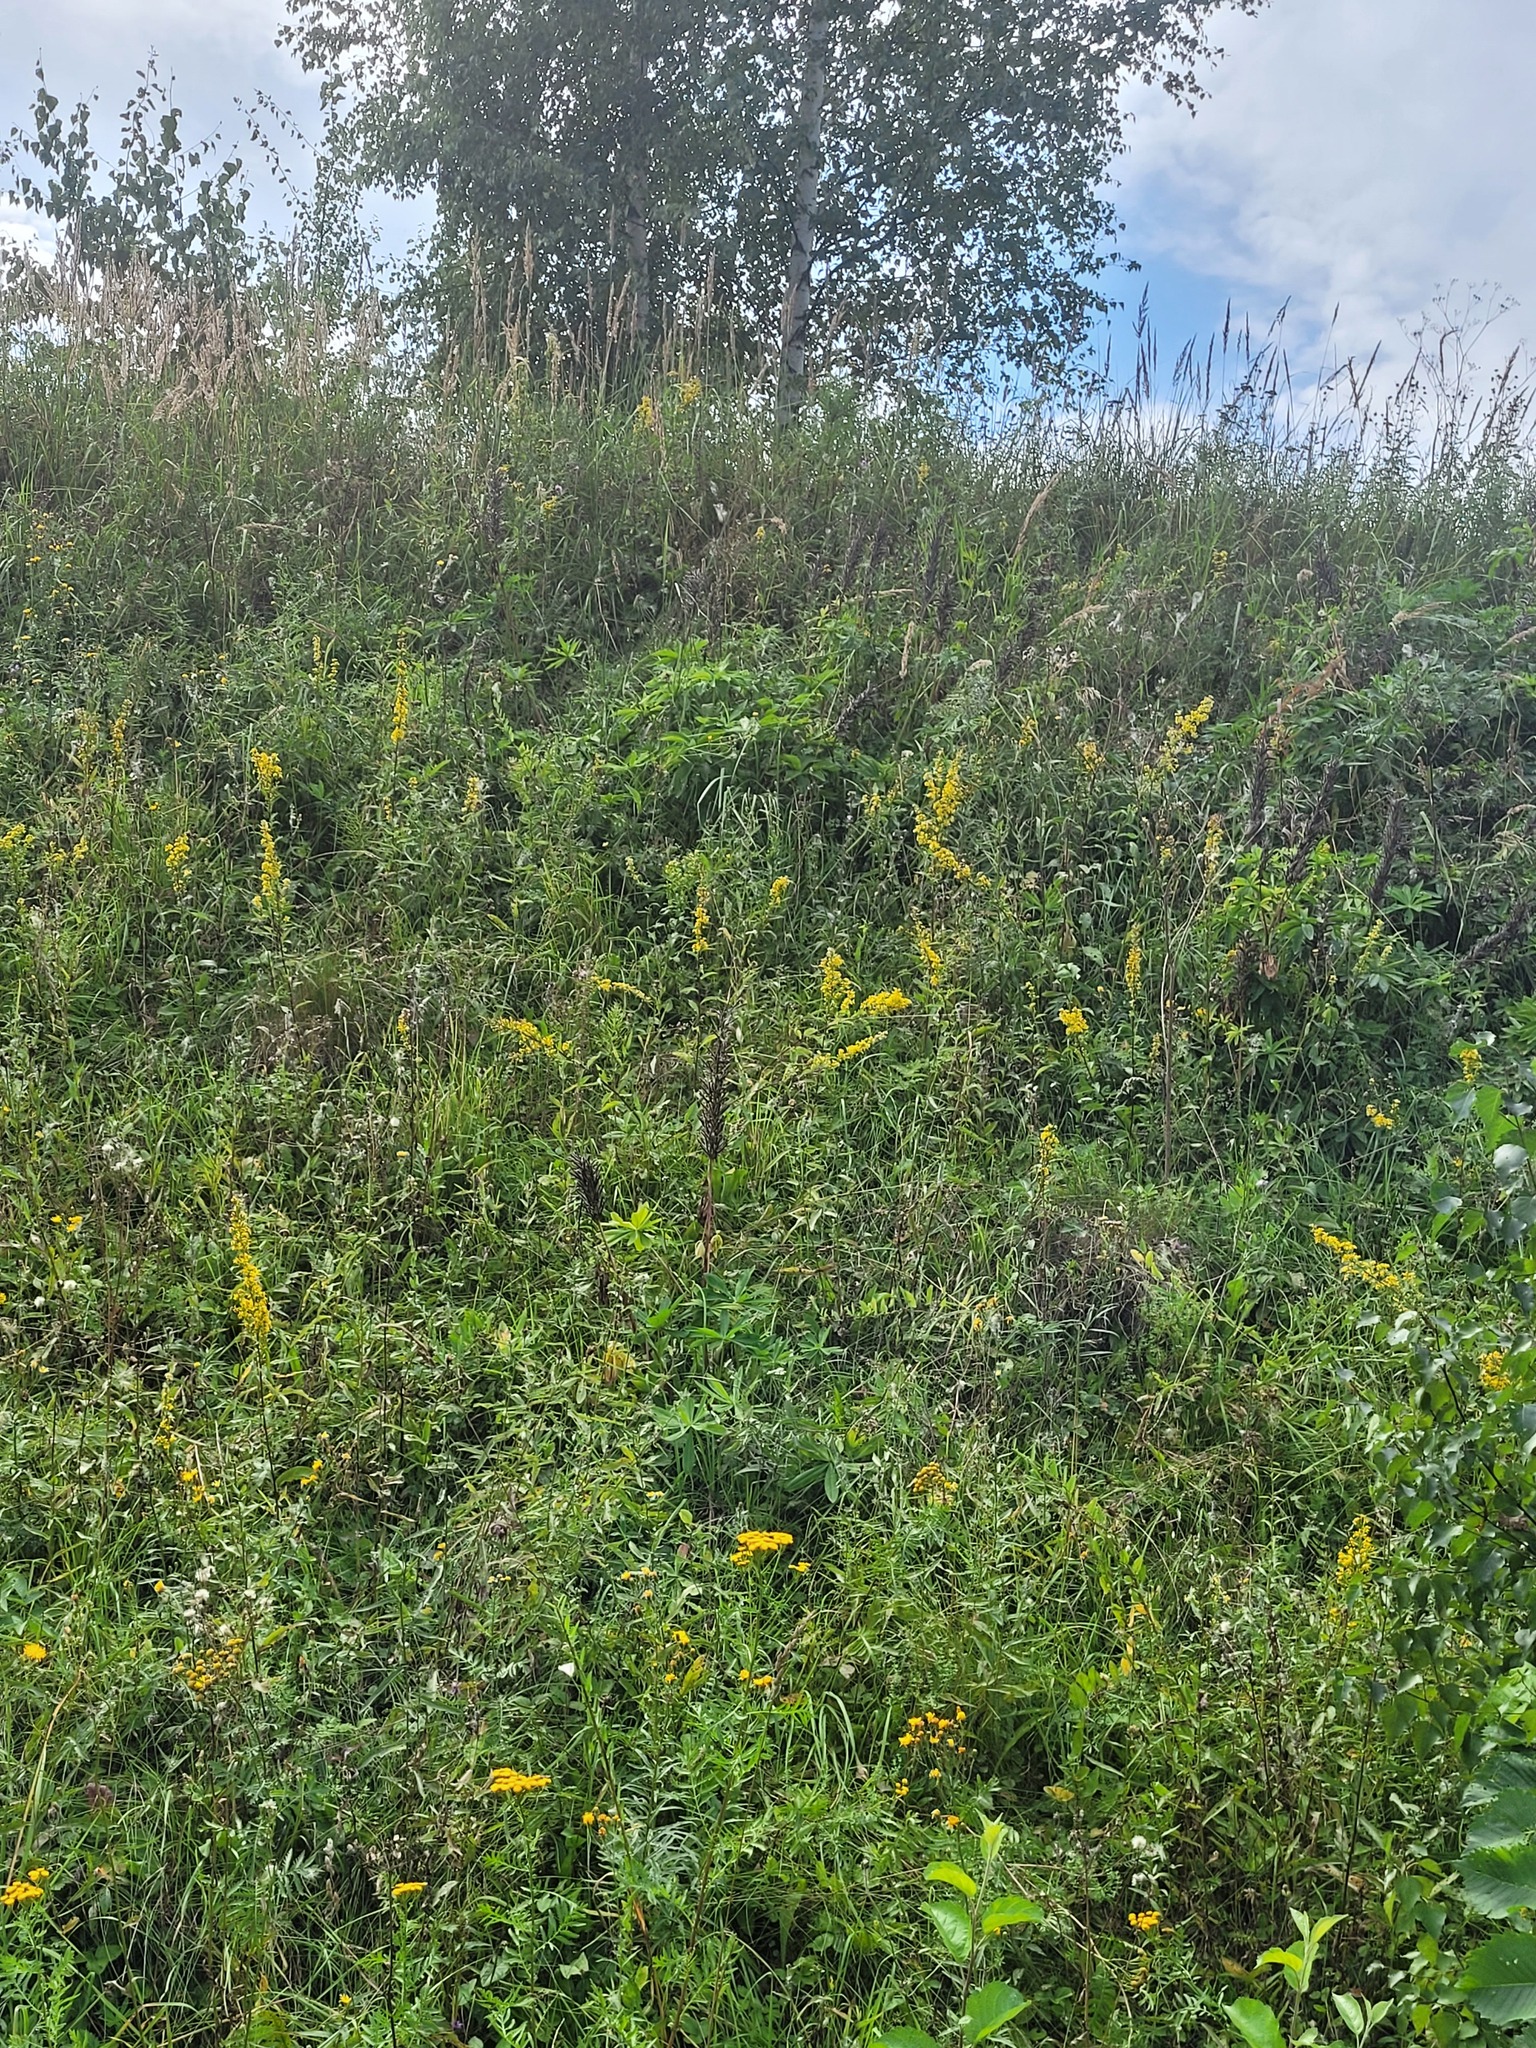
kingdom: Plantae
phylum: Tracheophyta
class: Magnoliopsida
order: Fabales
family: Fabaceae
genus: Lupinus
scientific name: Lupinus polyphyllus
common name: Garden lupin
